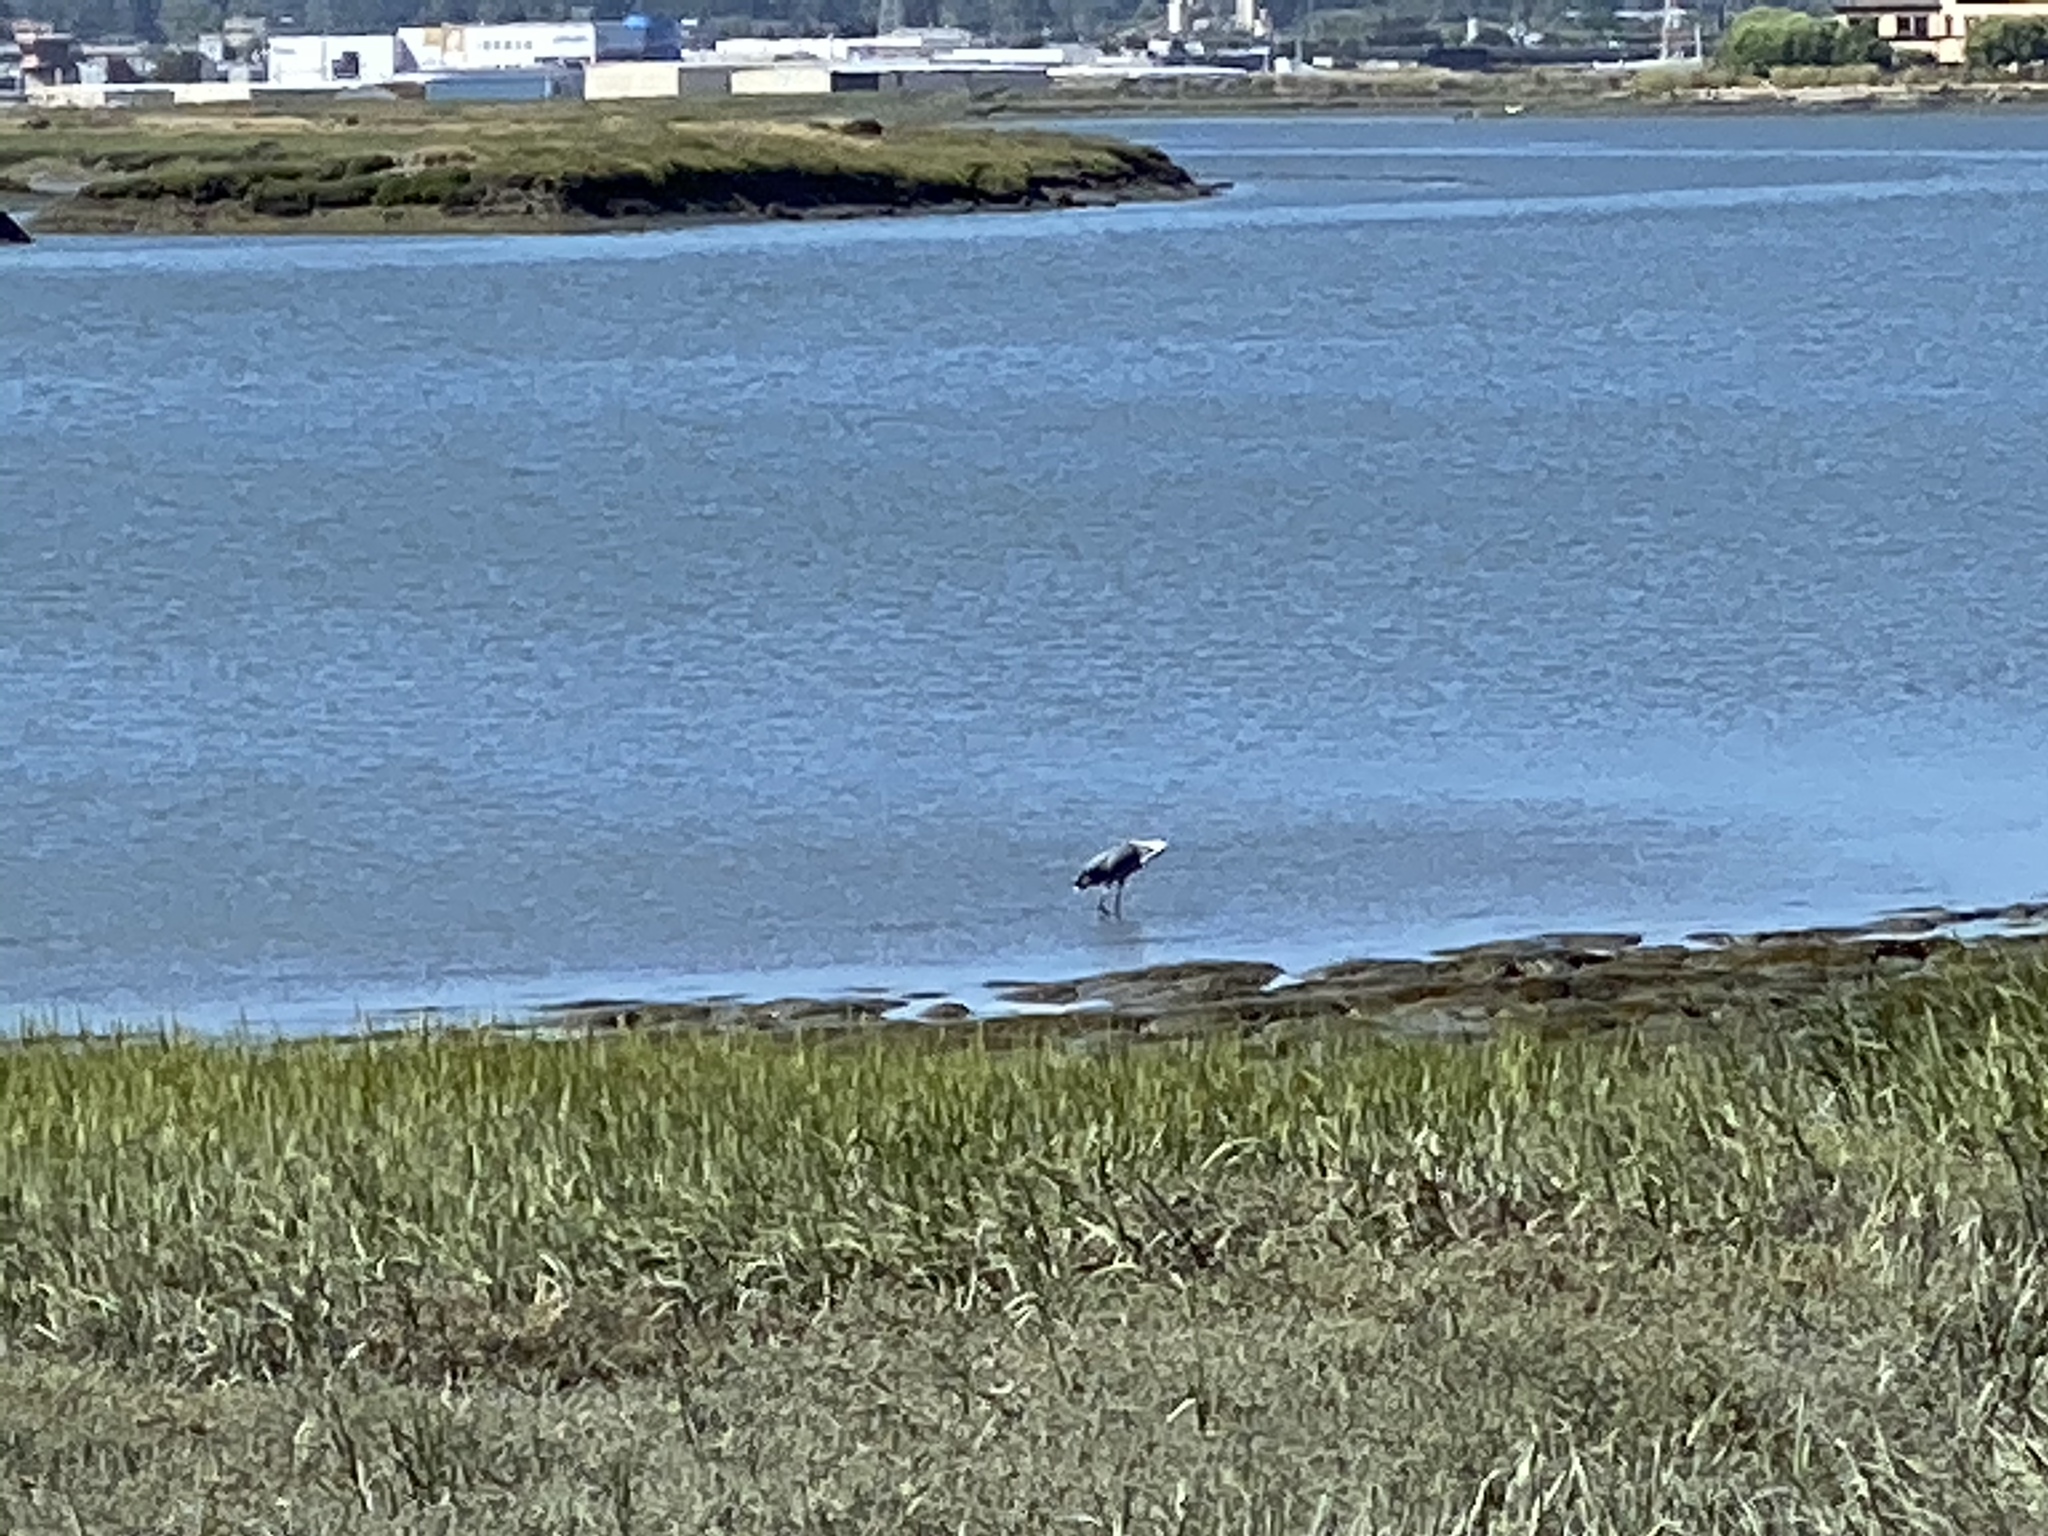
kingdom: Animalia
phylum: Chordata
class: Aves
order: Pelecaniformes
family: Ardeidae
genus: Ardea
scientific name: Ardea herodias
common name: Great blue heron
